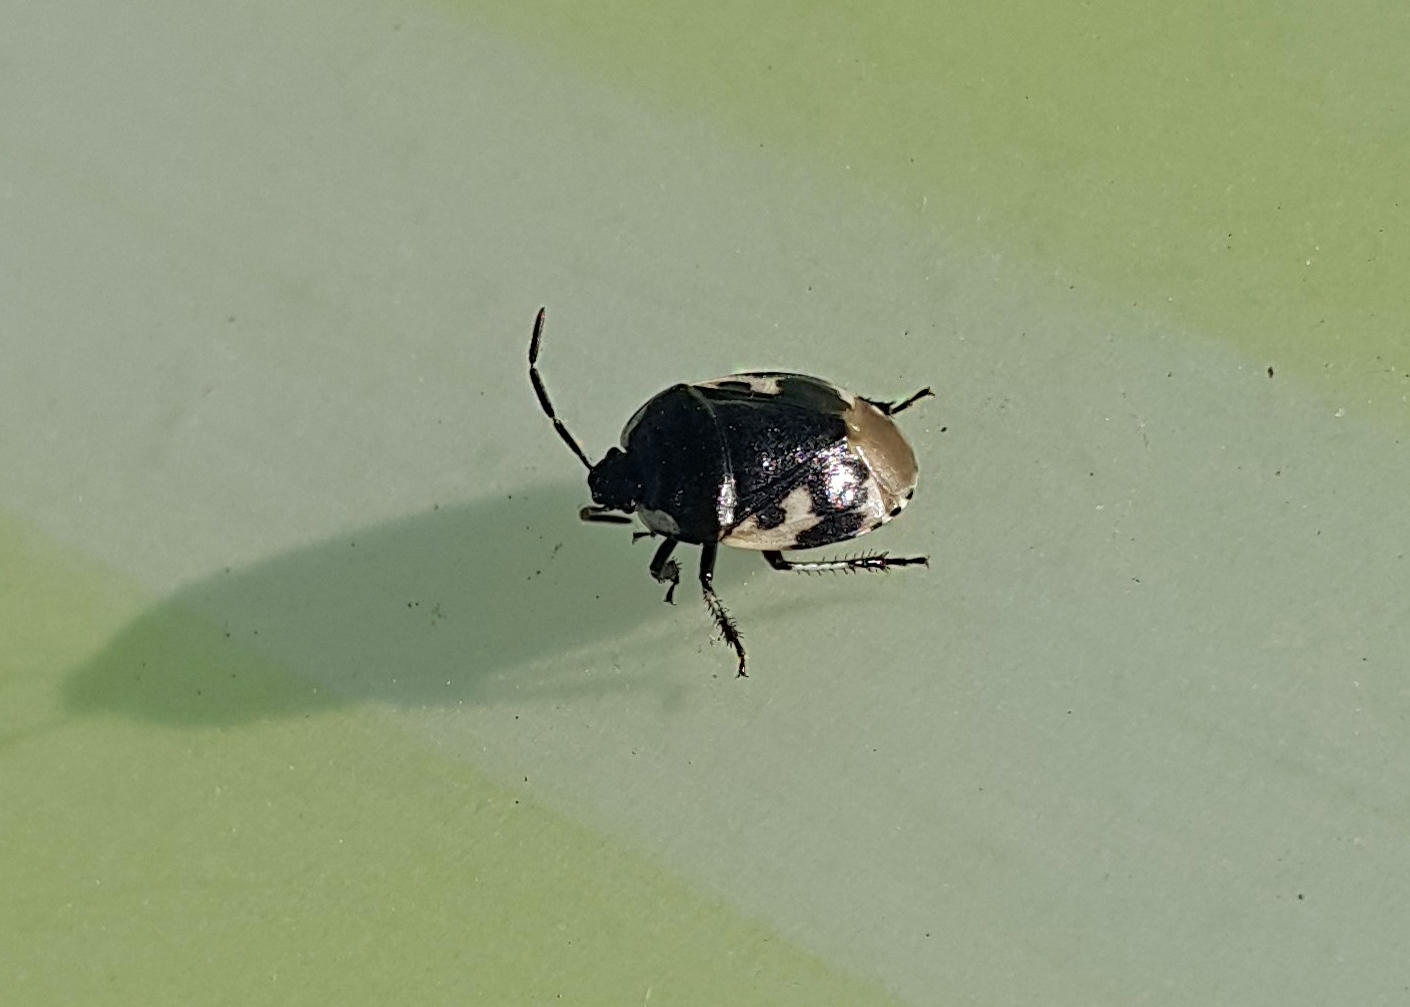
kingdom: Animalia
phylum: Arthropoda
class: Insecta
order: Hemiptera
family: Cydnidae
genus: Tritomegas
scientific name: Tritomegas bicolor
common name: Pied shieldbug
